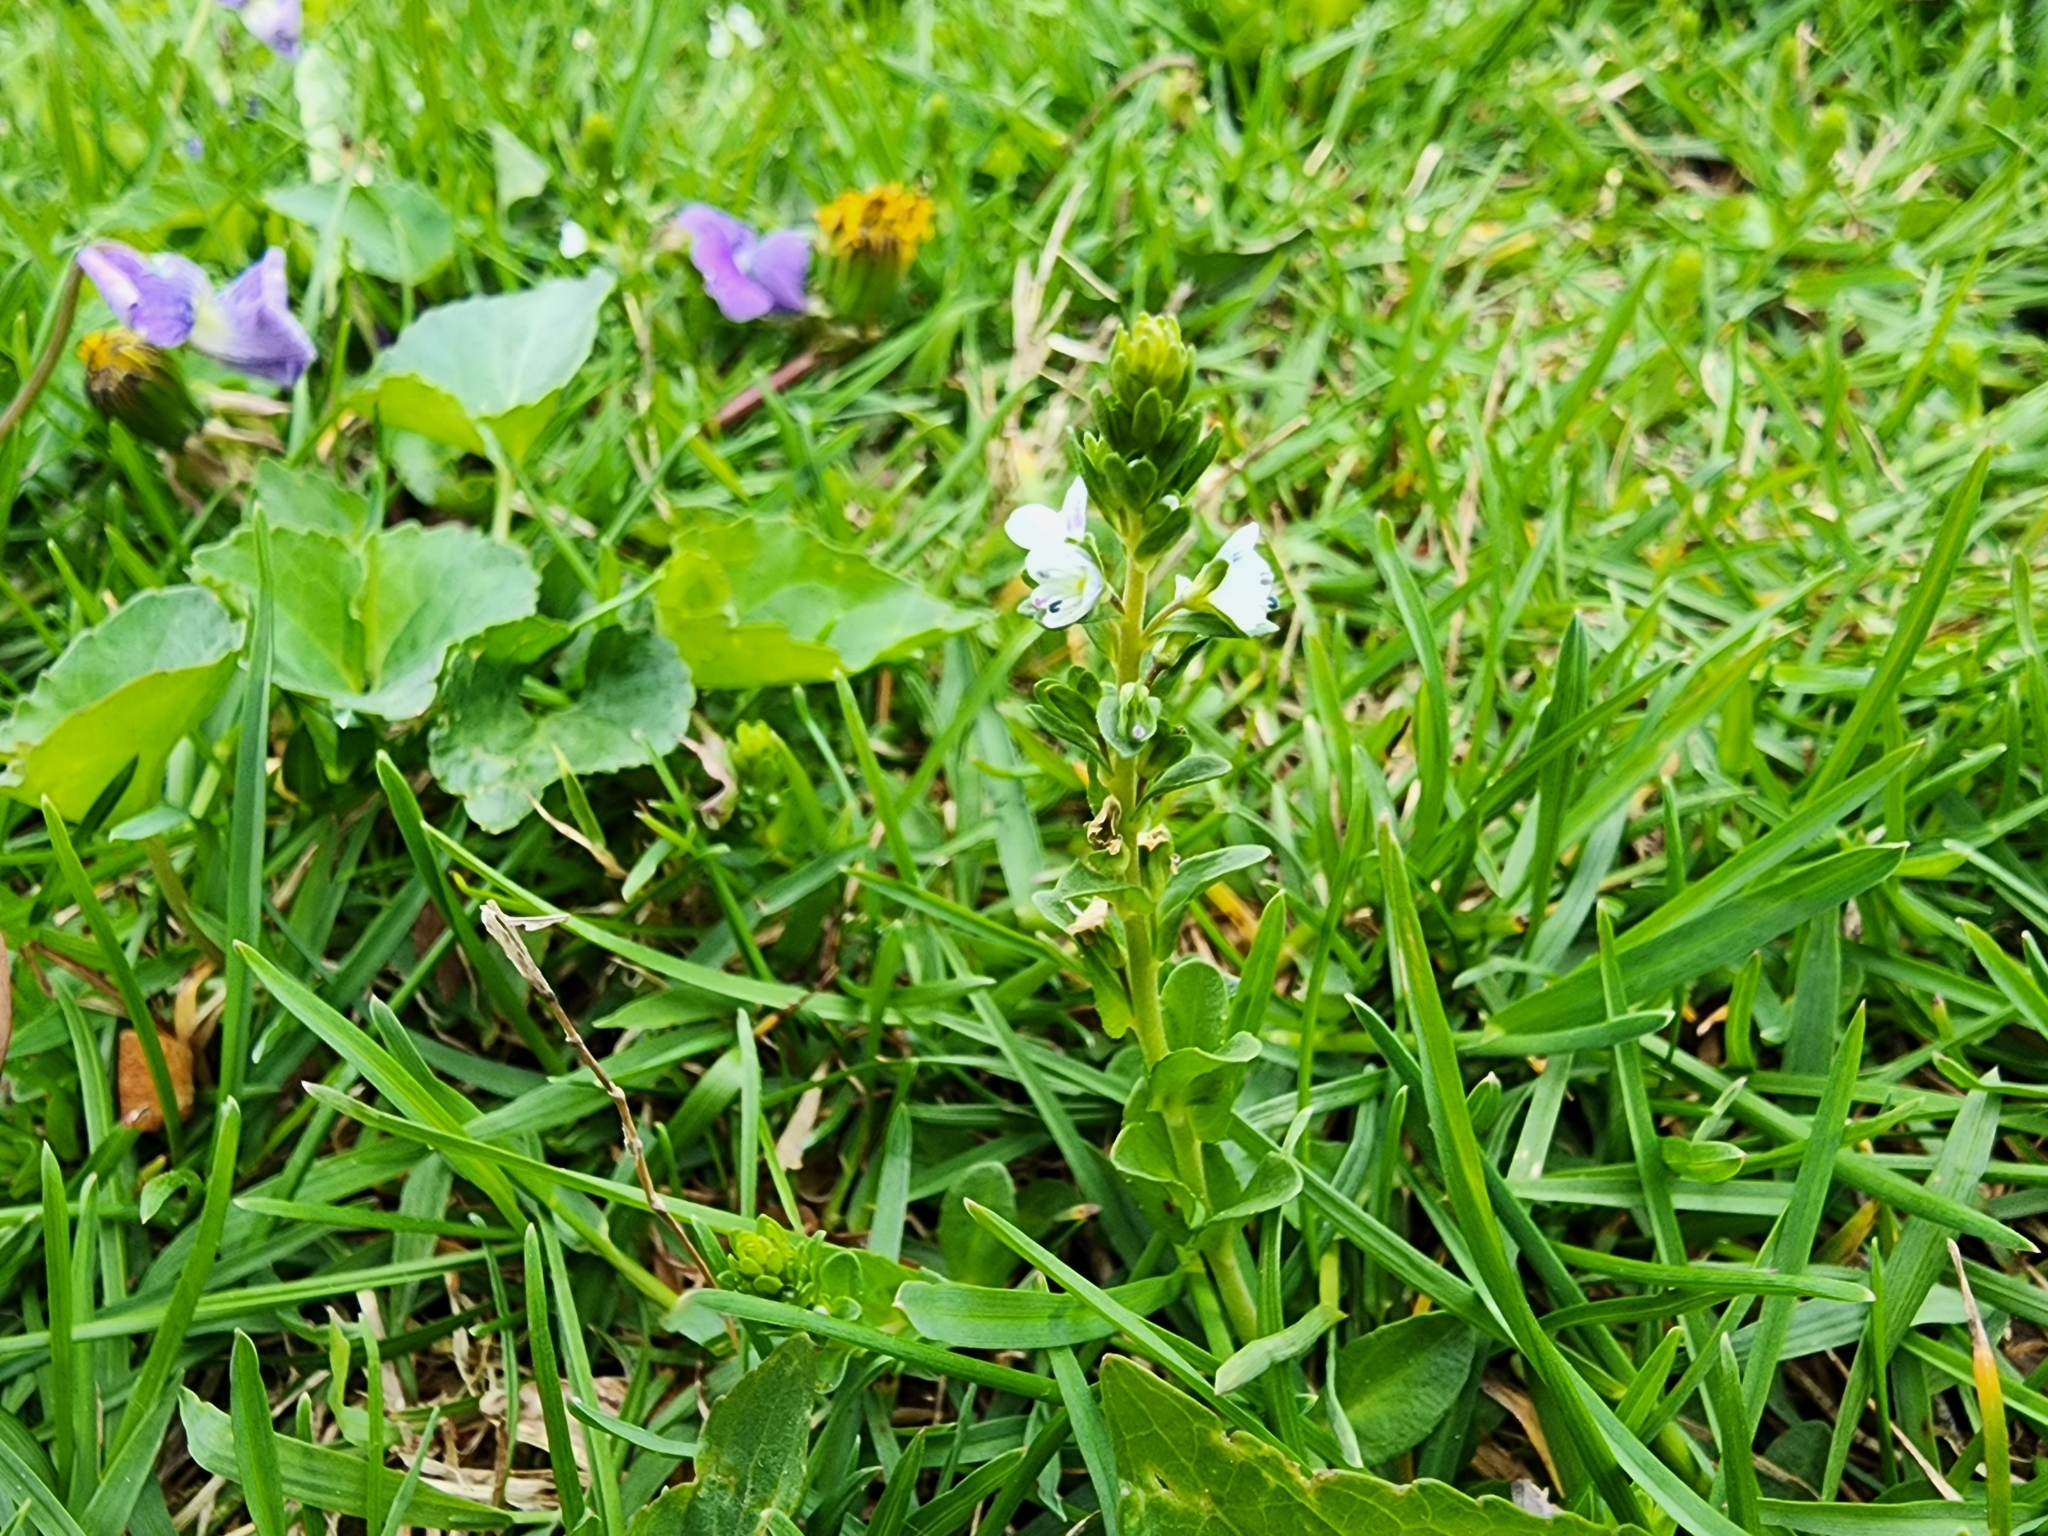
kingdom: Plantae
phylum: Tracheophyta
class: Magnoliopsida
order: Lamiales
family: Plantaginaceae
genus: Veronica
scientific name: Veronica serpyllifolia
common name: Thyme-leaved speedwell
